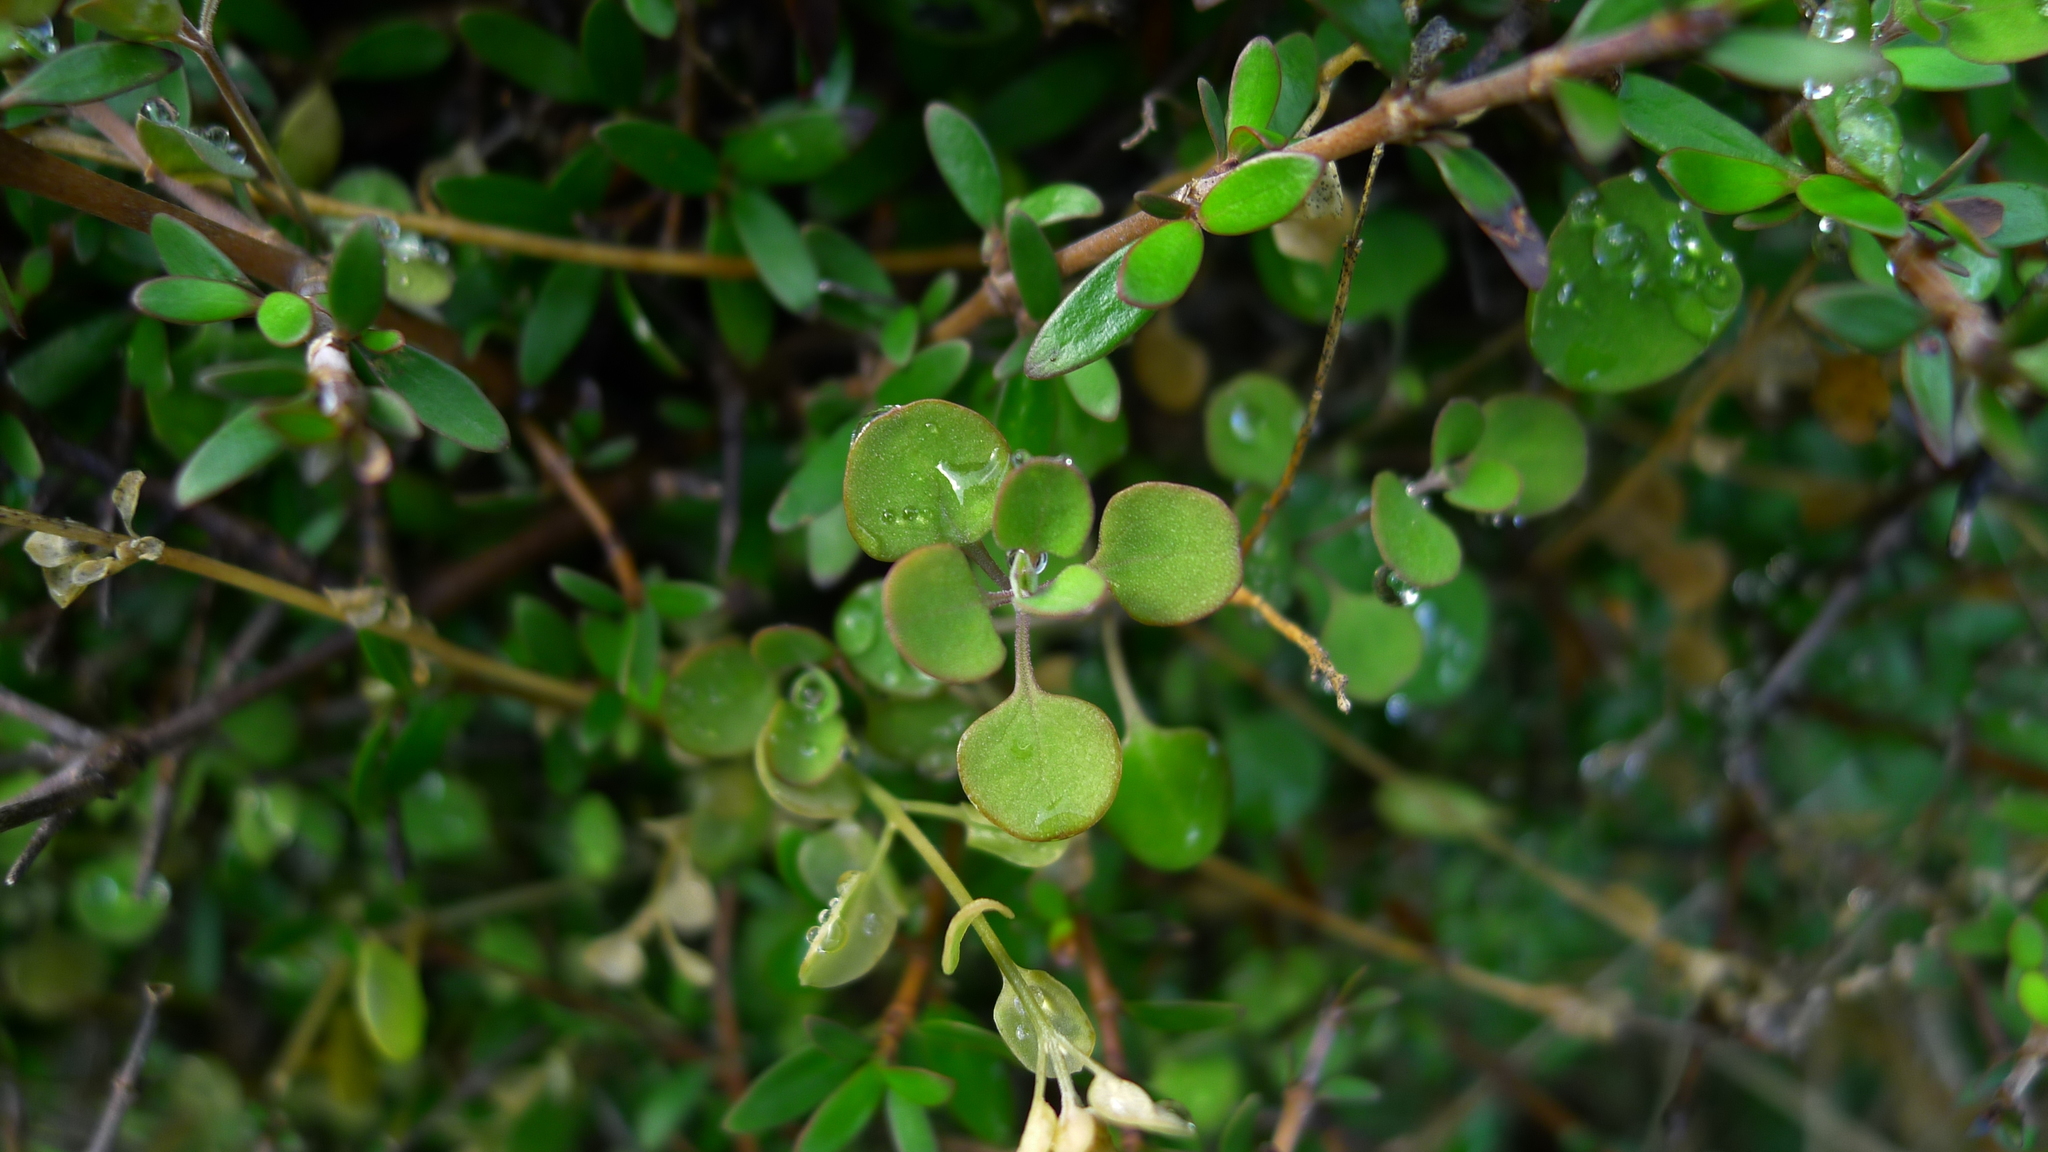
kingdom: Plantae
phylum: Tracheophyta
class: Magnoliopsida
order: Caryophyllales
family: Amaranthaceae
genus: Chenopodium
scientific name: Chenopodium allanii
